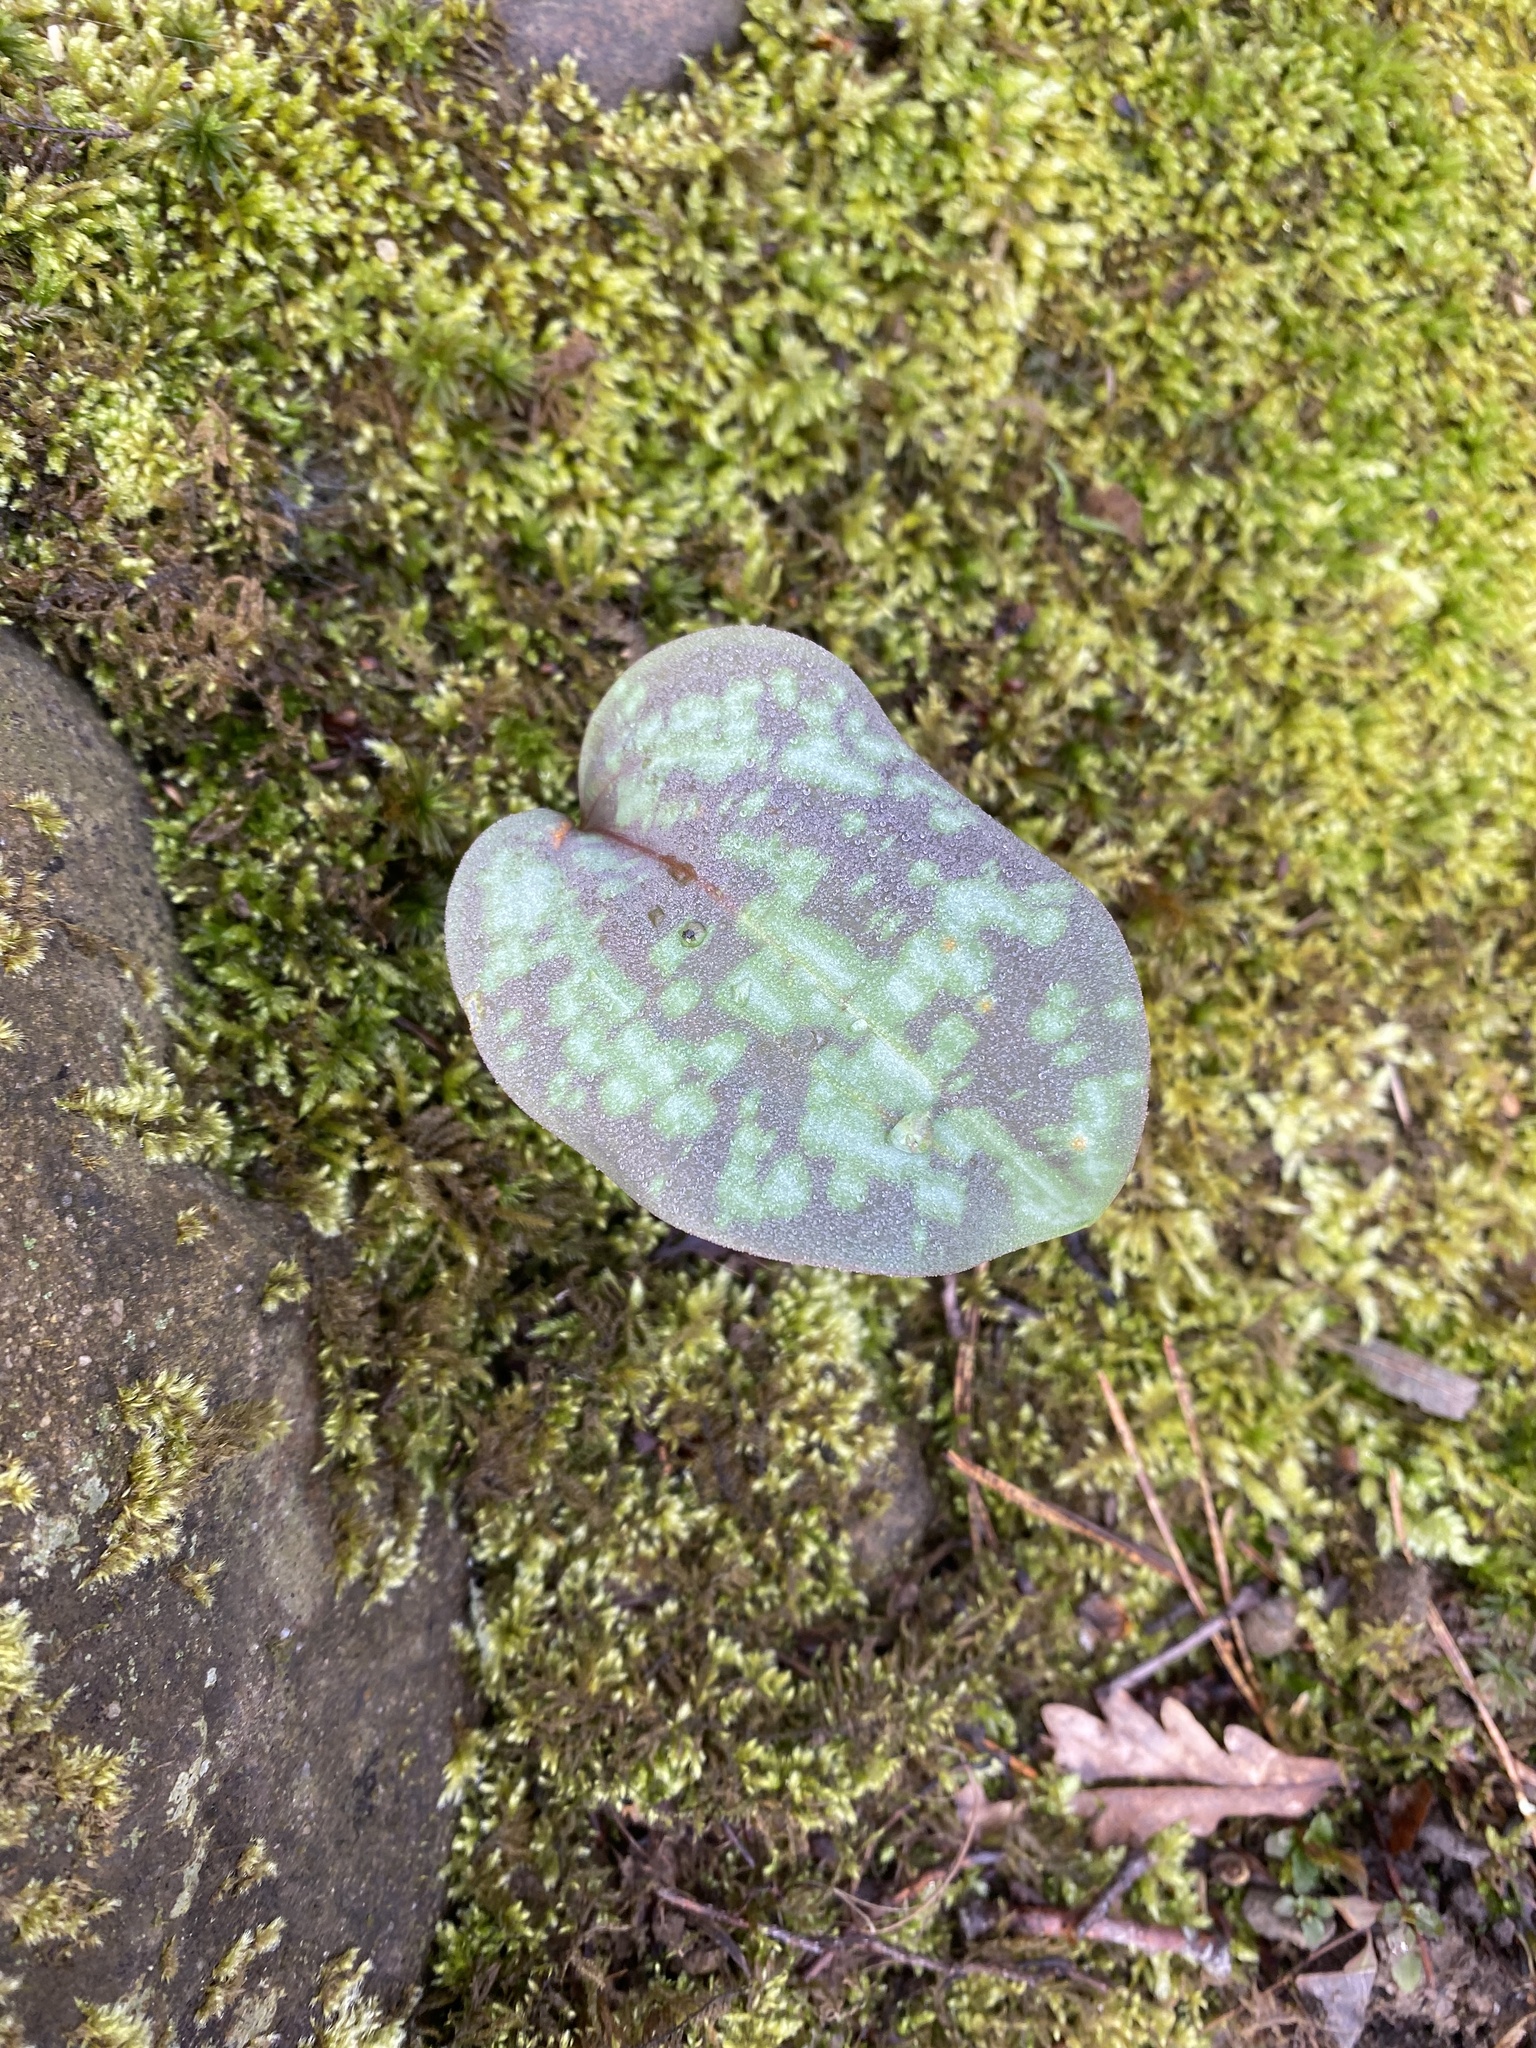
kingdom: Plantae
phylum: Tracheophyta
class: Liliopsida
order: Liliales
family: Liliaceae
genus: Erythronium
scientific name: Erythronium caucasicum
